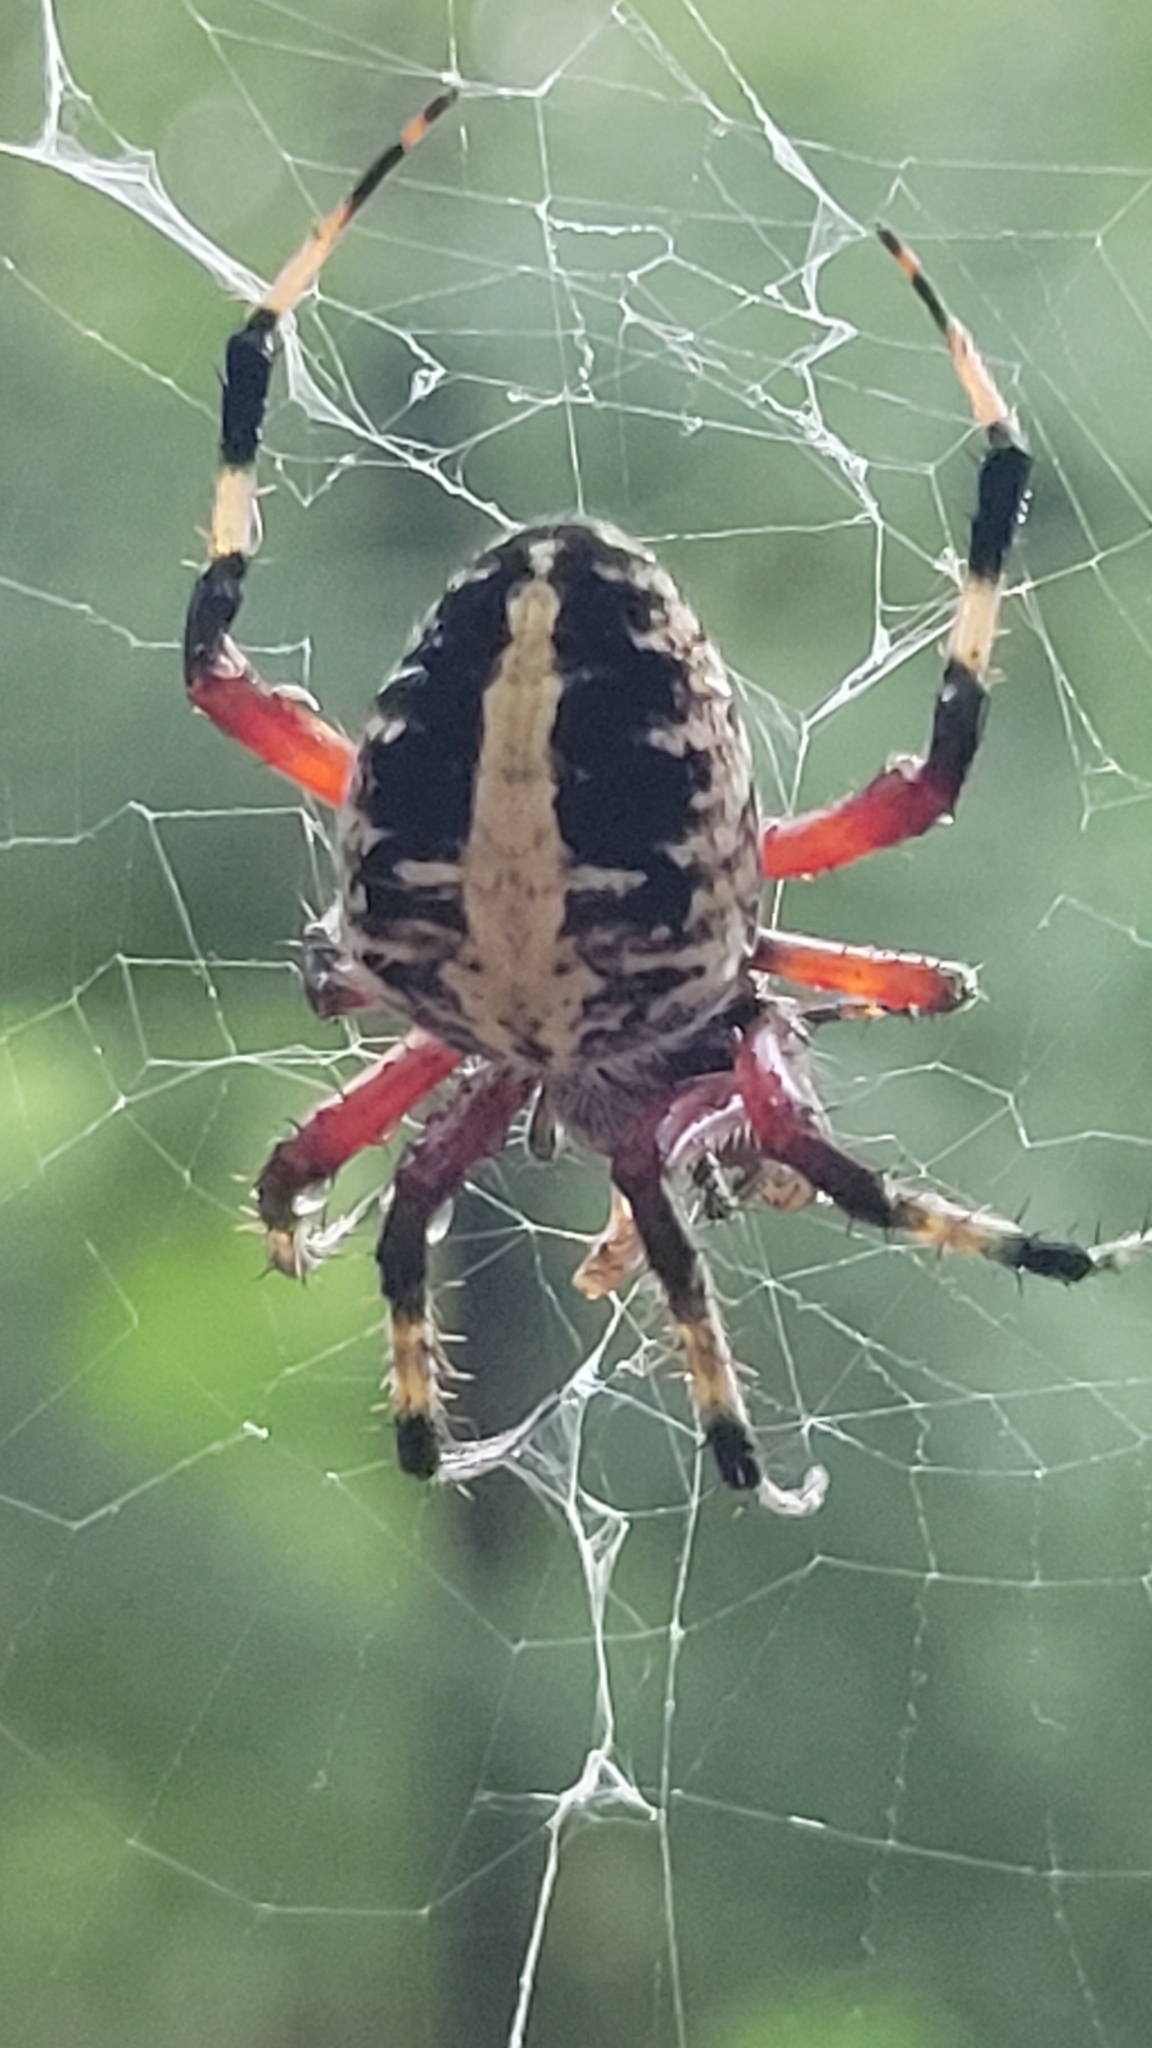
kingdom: Animalia
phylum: Arthropoda
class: Arachnida
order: Araneae
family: Araneidae
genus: Neoscona
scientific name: Neoscona domiciliorum
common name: Red-femured spotted orbweaver
